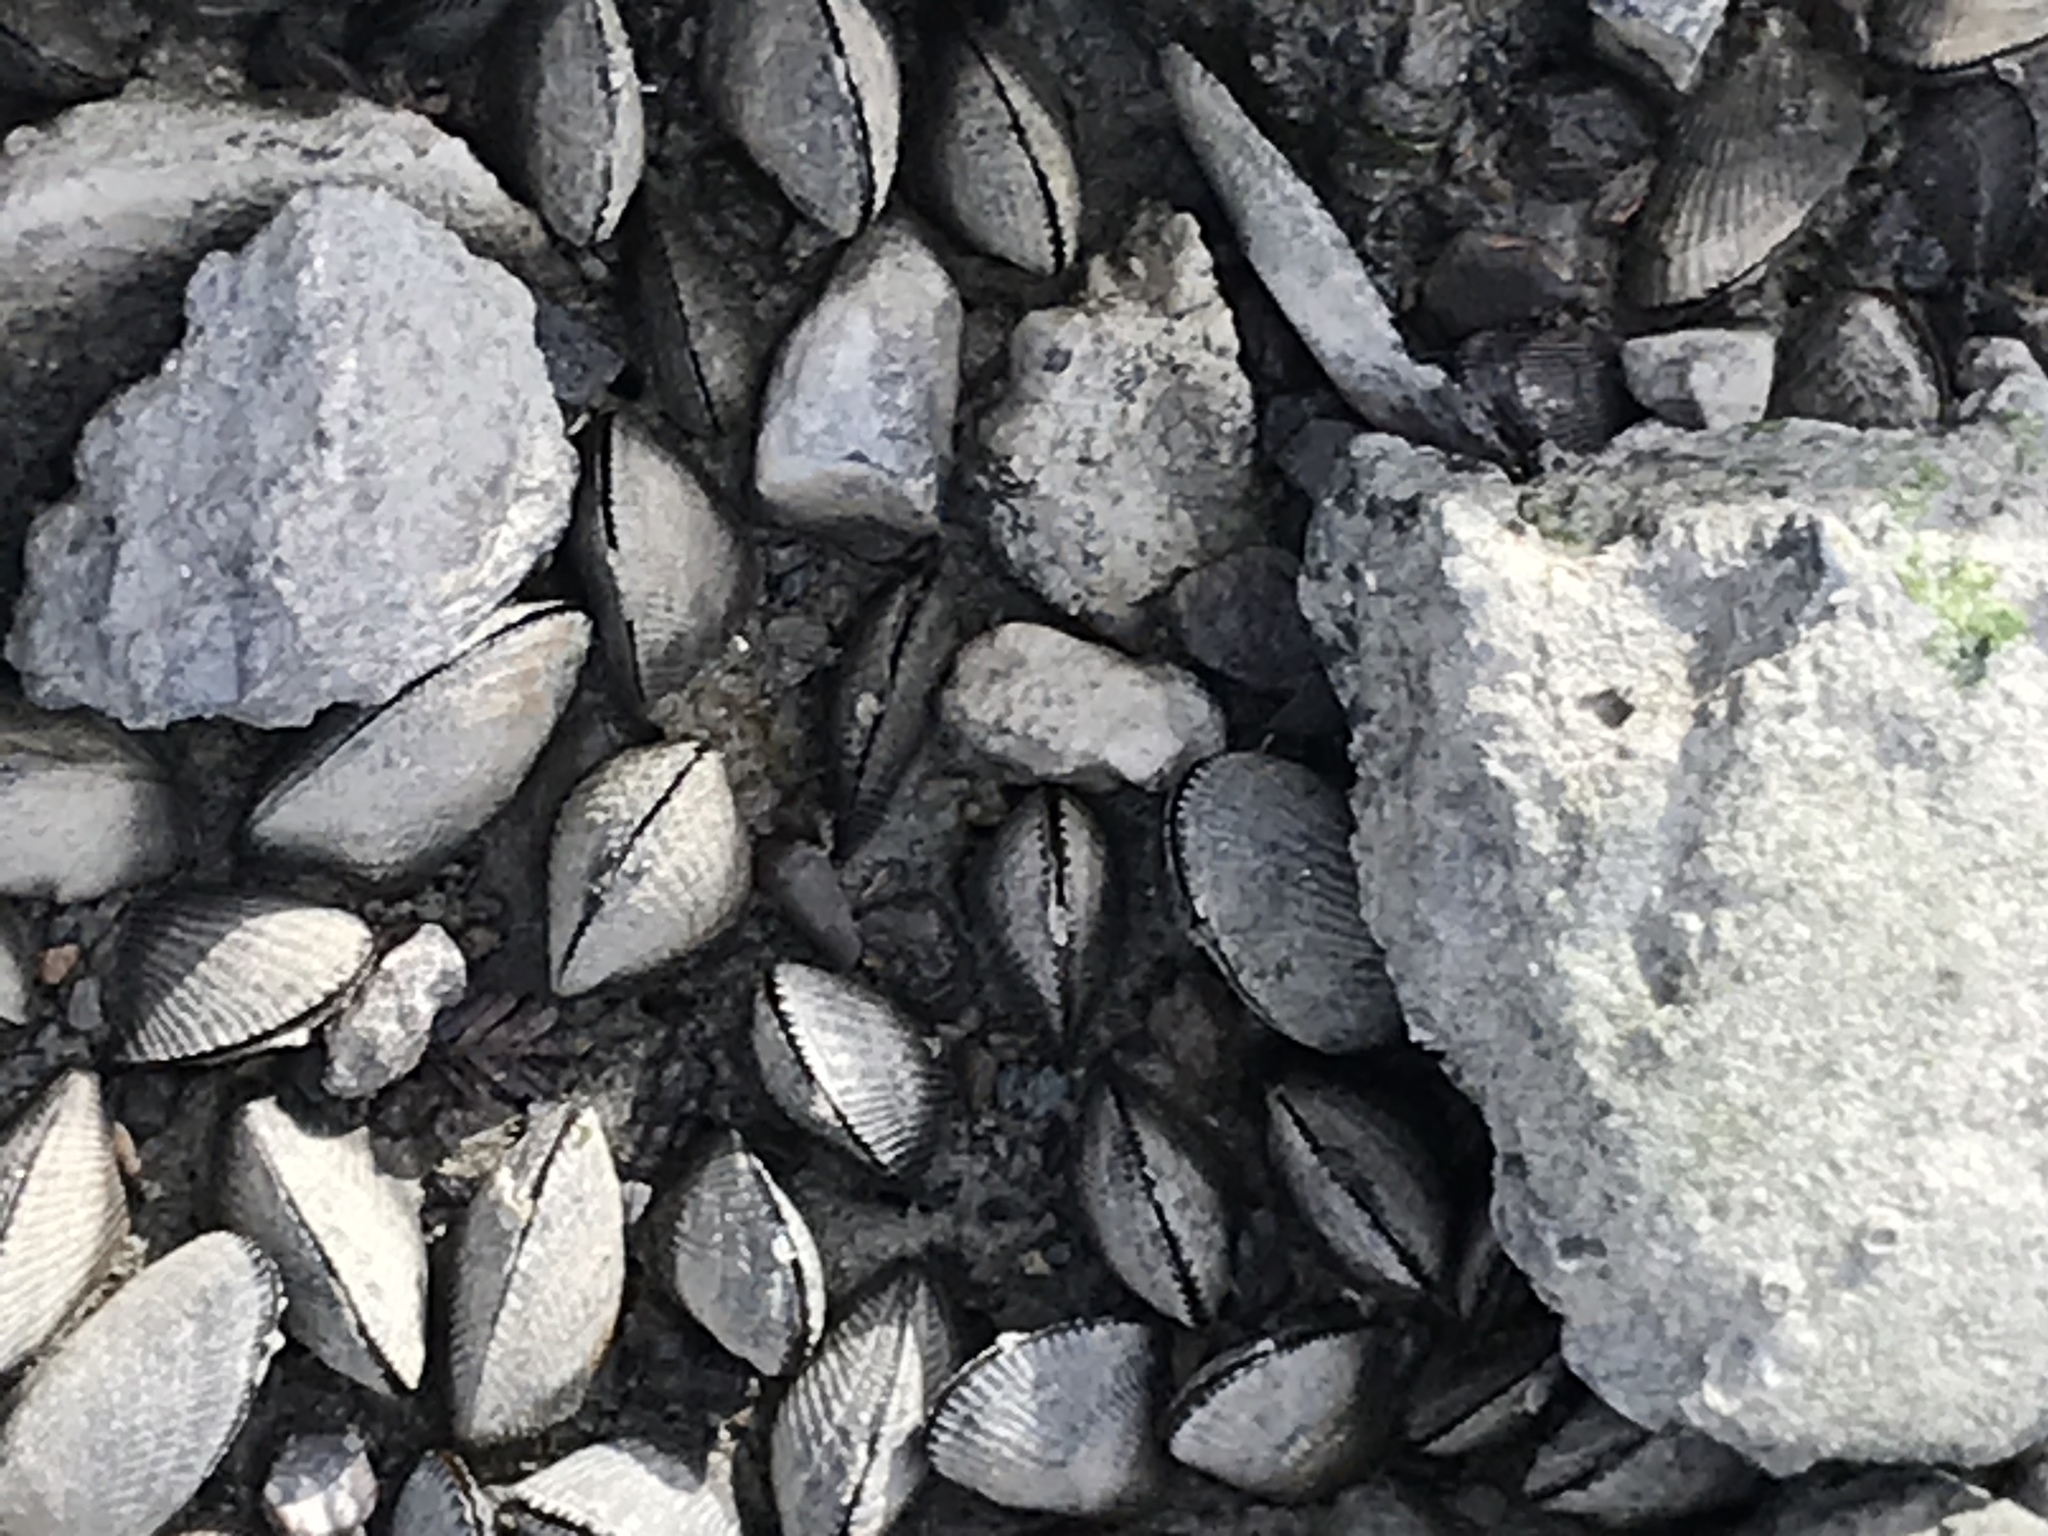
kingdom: Animalia
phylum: Mollusca
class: Bivalvia
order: Mytilida
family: Mytilidae
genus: Geukensia
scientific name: Geukensia demissa
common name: Ribbed mussel
